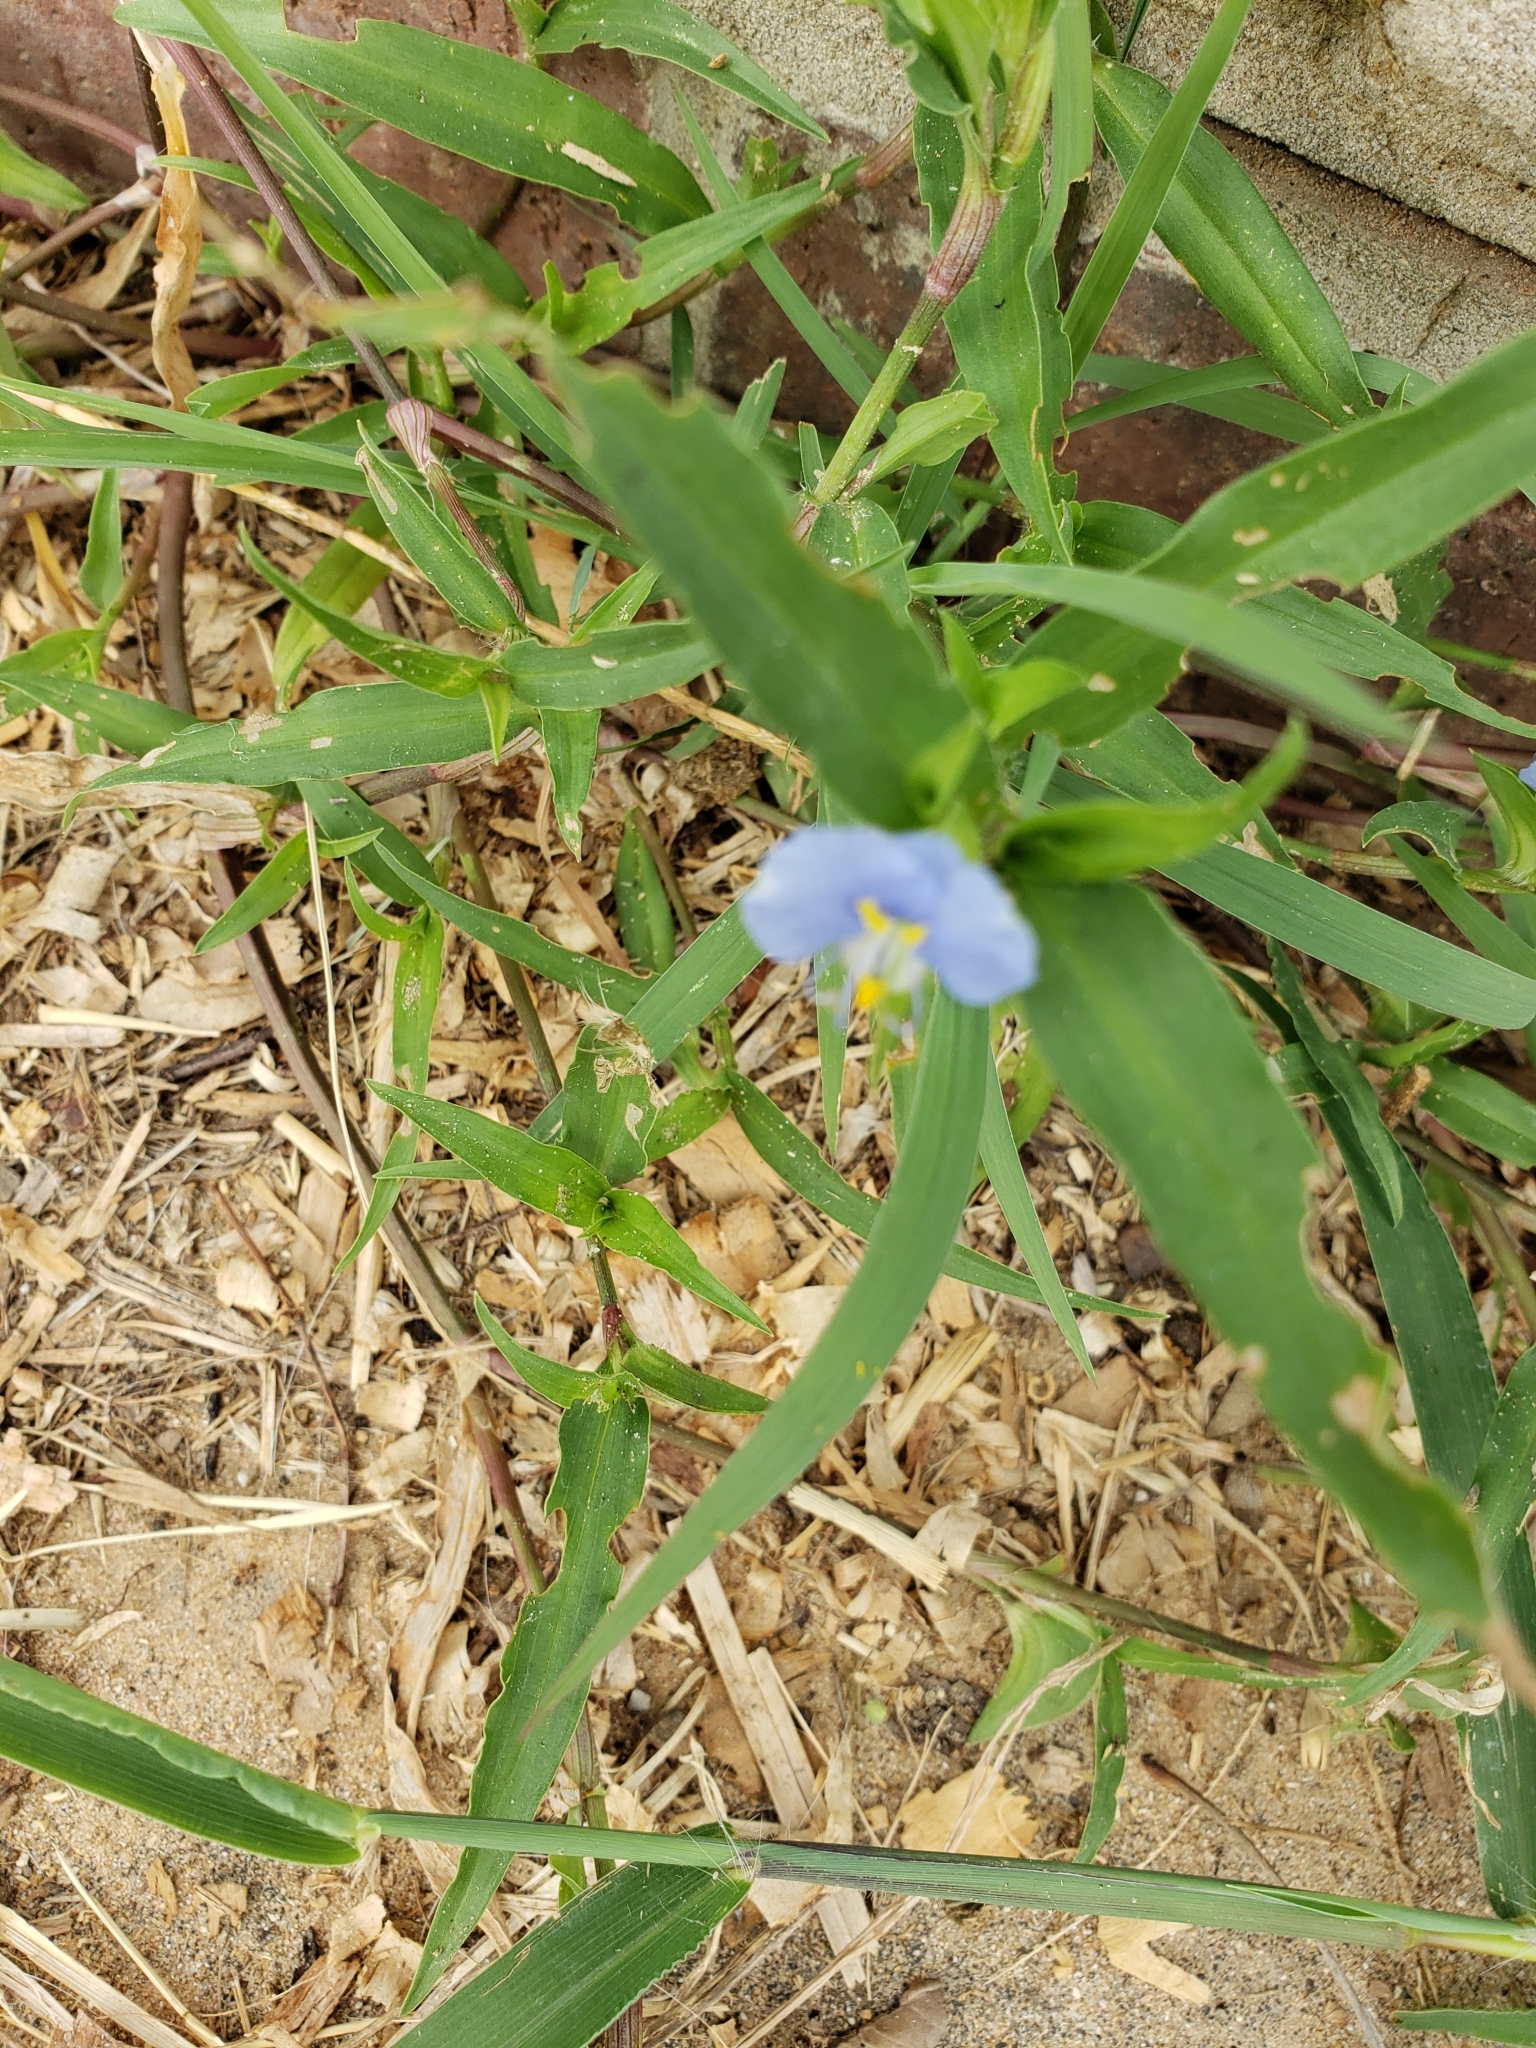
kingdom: Plantae
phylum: Tracheophyta
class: Liliopsida
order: Commelinales
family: Commelinaceae
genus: Commelina
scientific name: Commelina erecta
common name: Blousel blommetjie
